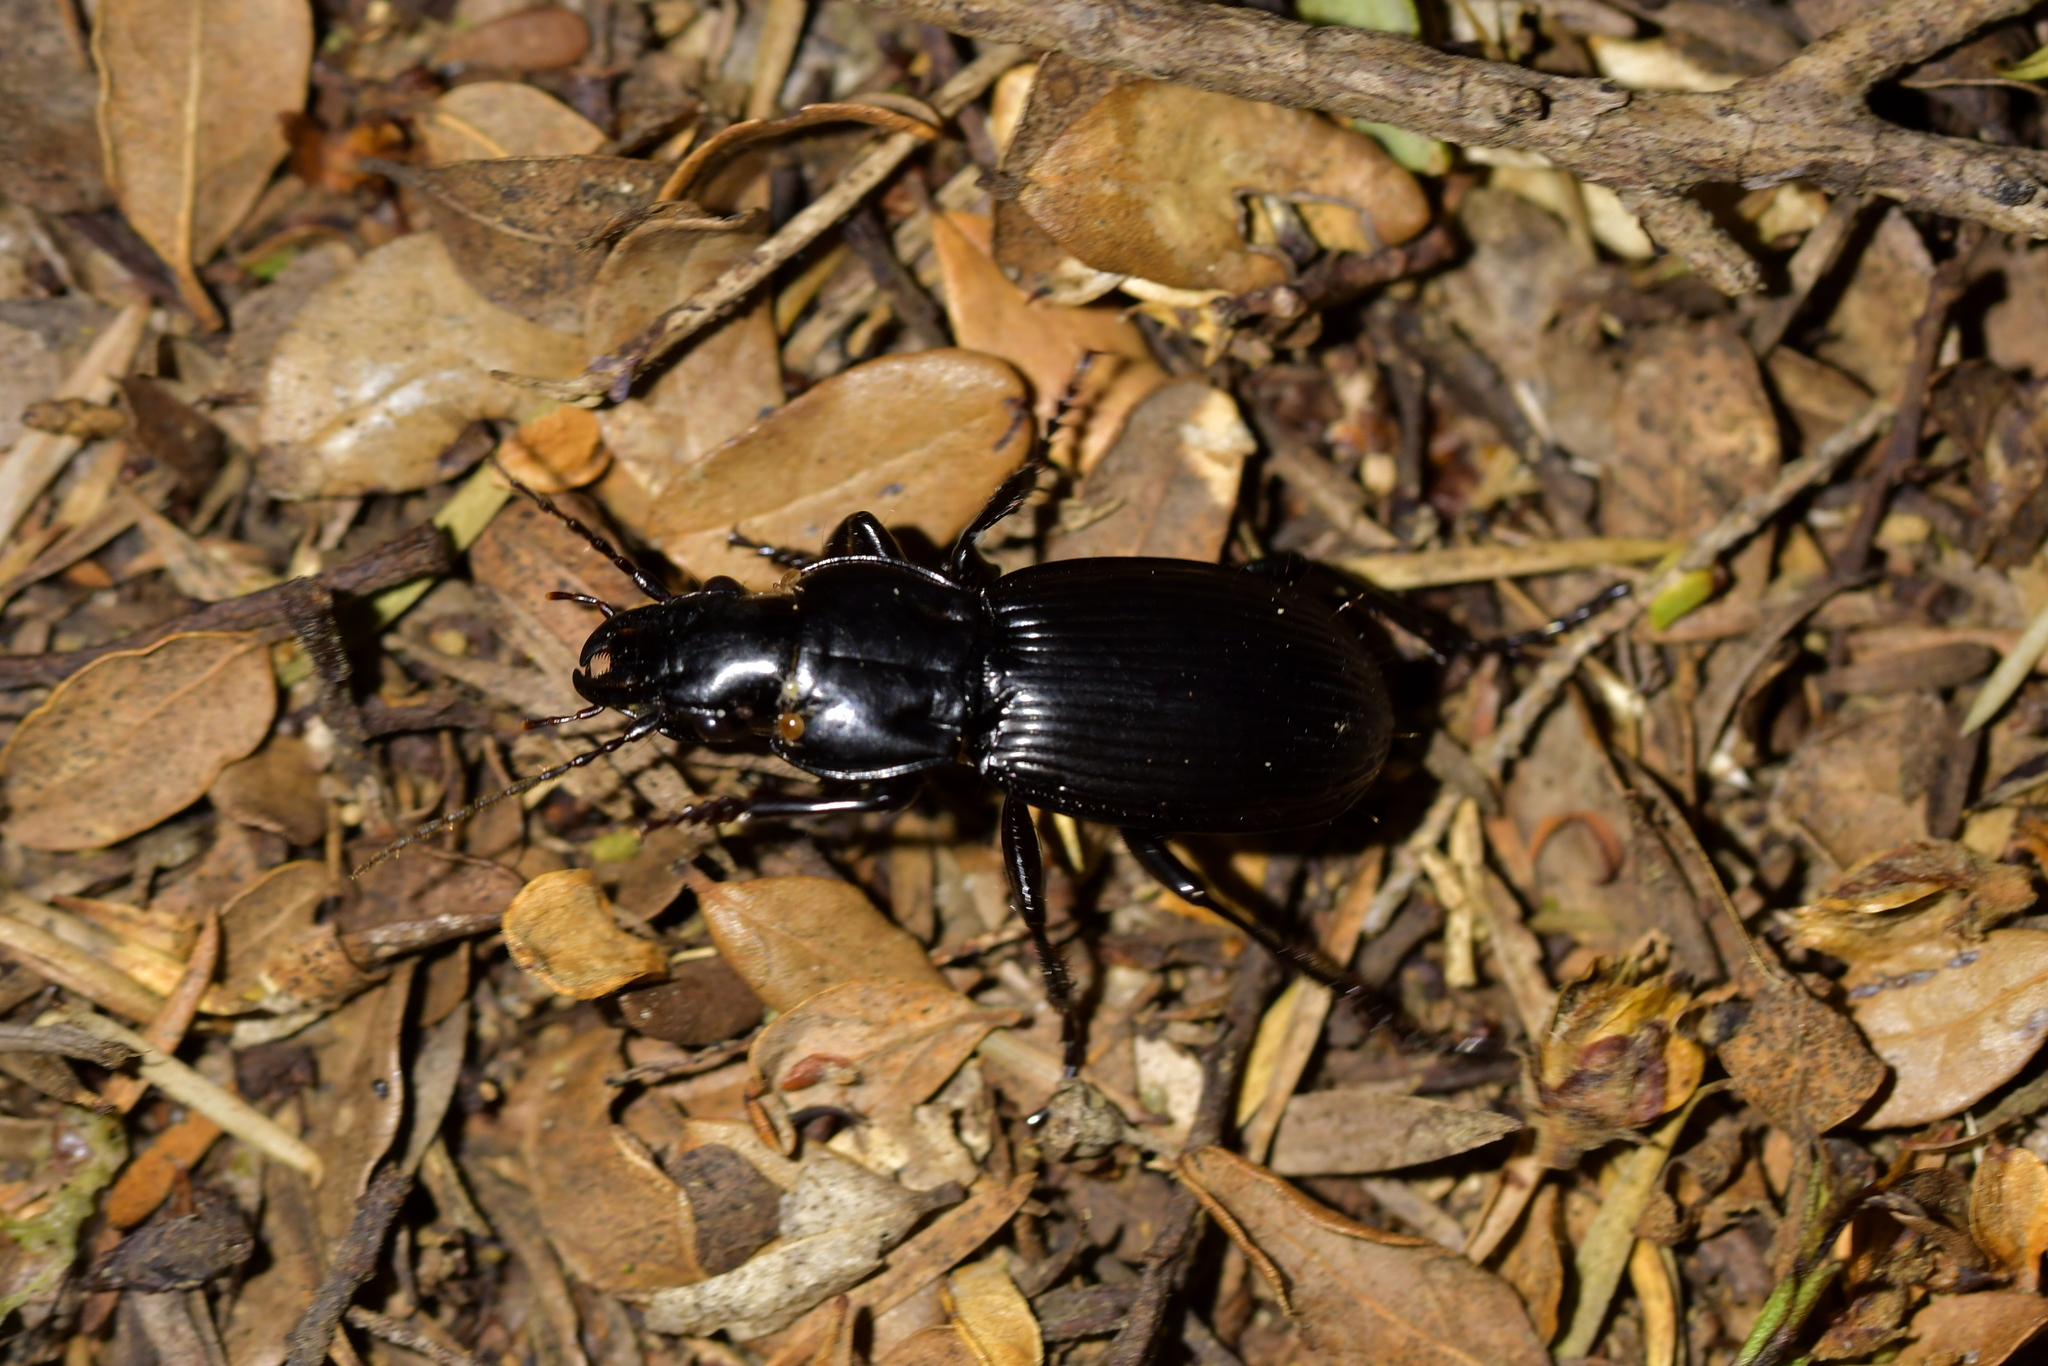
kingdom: Animalia
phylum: Arthropoda
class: Insecta
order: Coleoptera
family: Carabidae
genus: Megadromus
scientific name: Megadromus vigil
